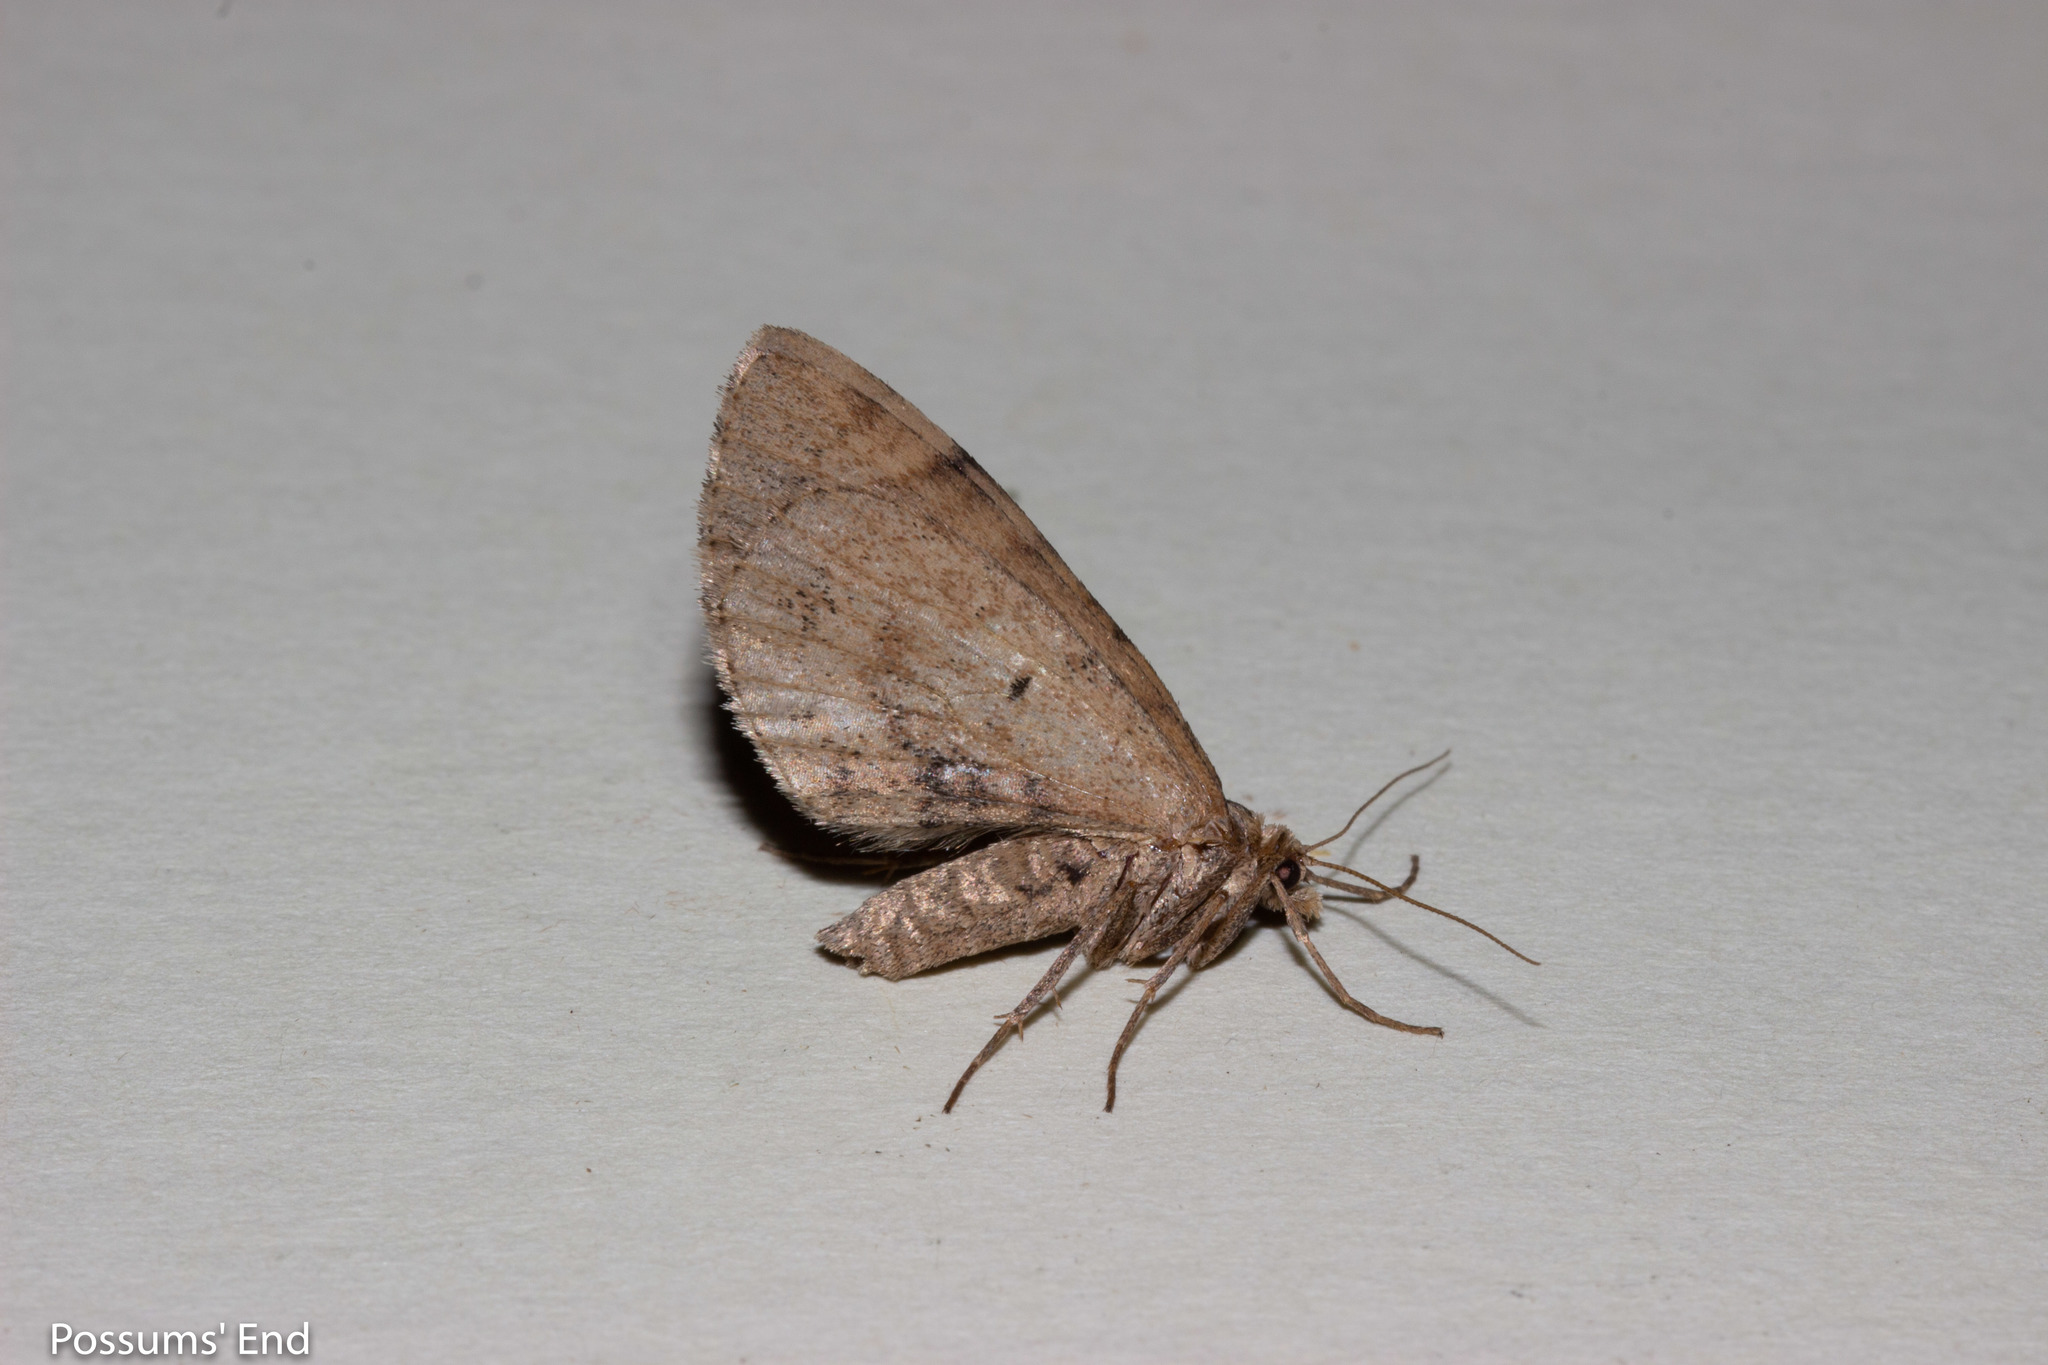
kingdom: Animalia
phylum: Arthropoda
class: Insecta
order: Lepidoptera
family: Geometridae
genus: Asaphodes
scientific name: Asaphodes aegrota
